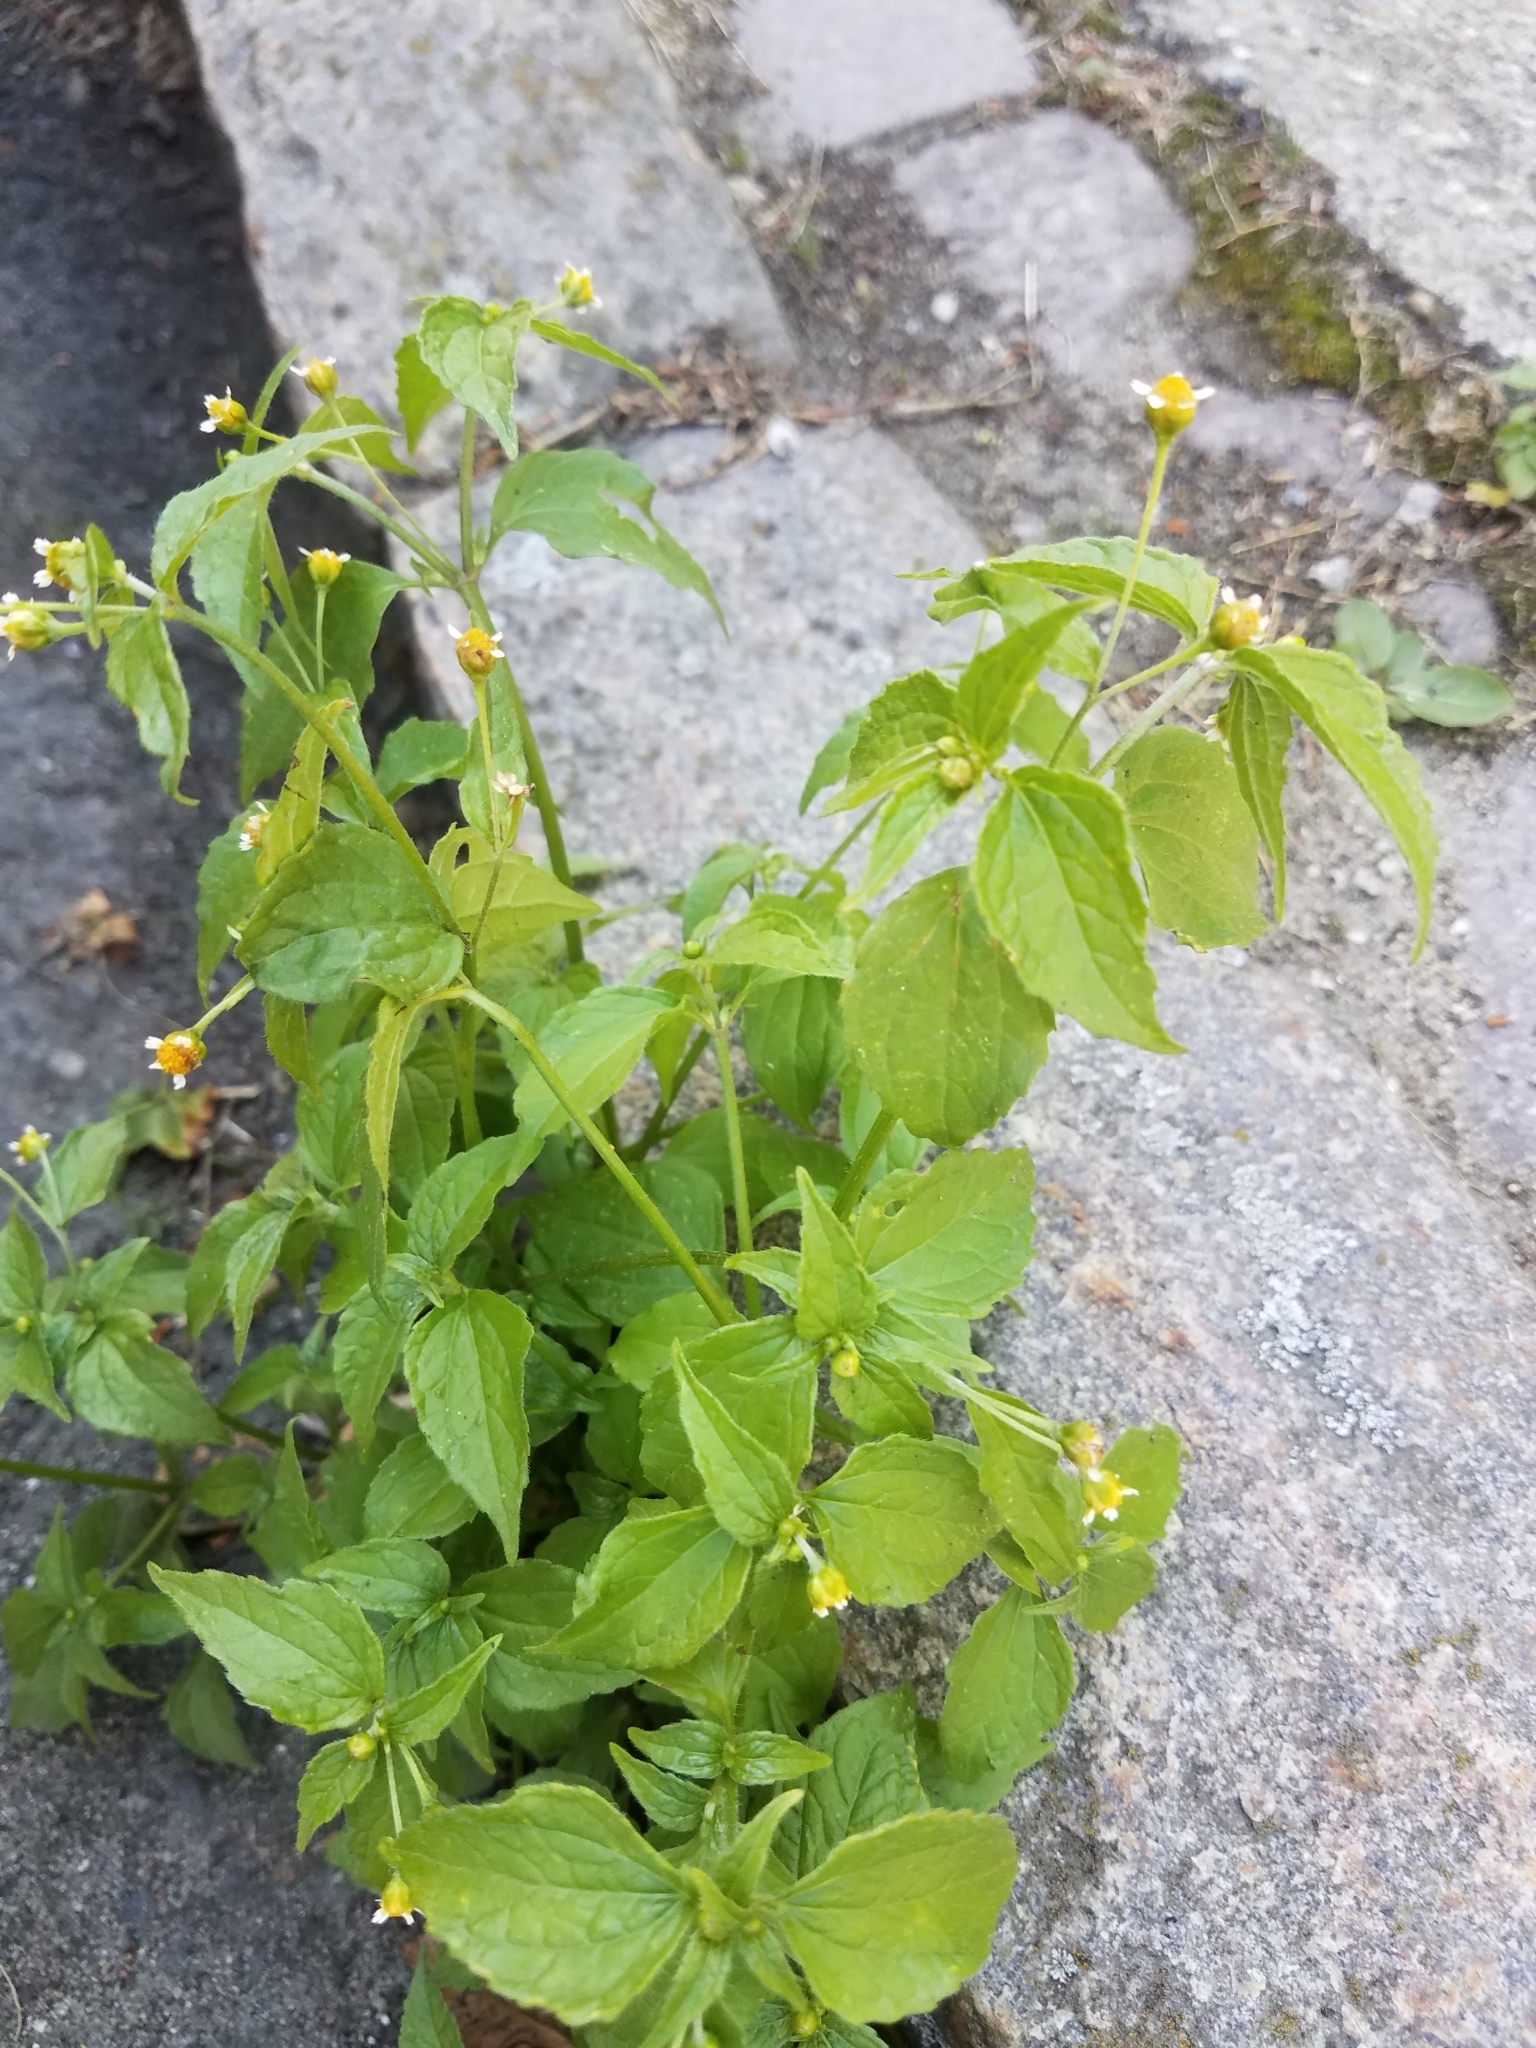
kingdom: Plantae
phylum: Tracheophyta
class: Magnoliopsida
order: Asterales
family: Asteraceae
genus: Galinsoga
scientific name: Galinsoga parviflora
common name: Gallant soldier
